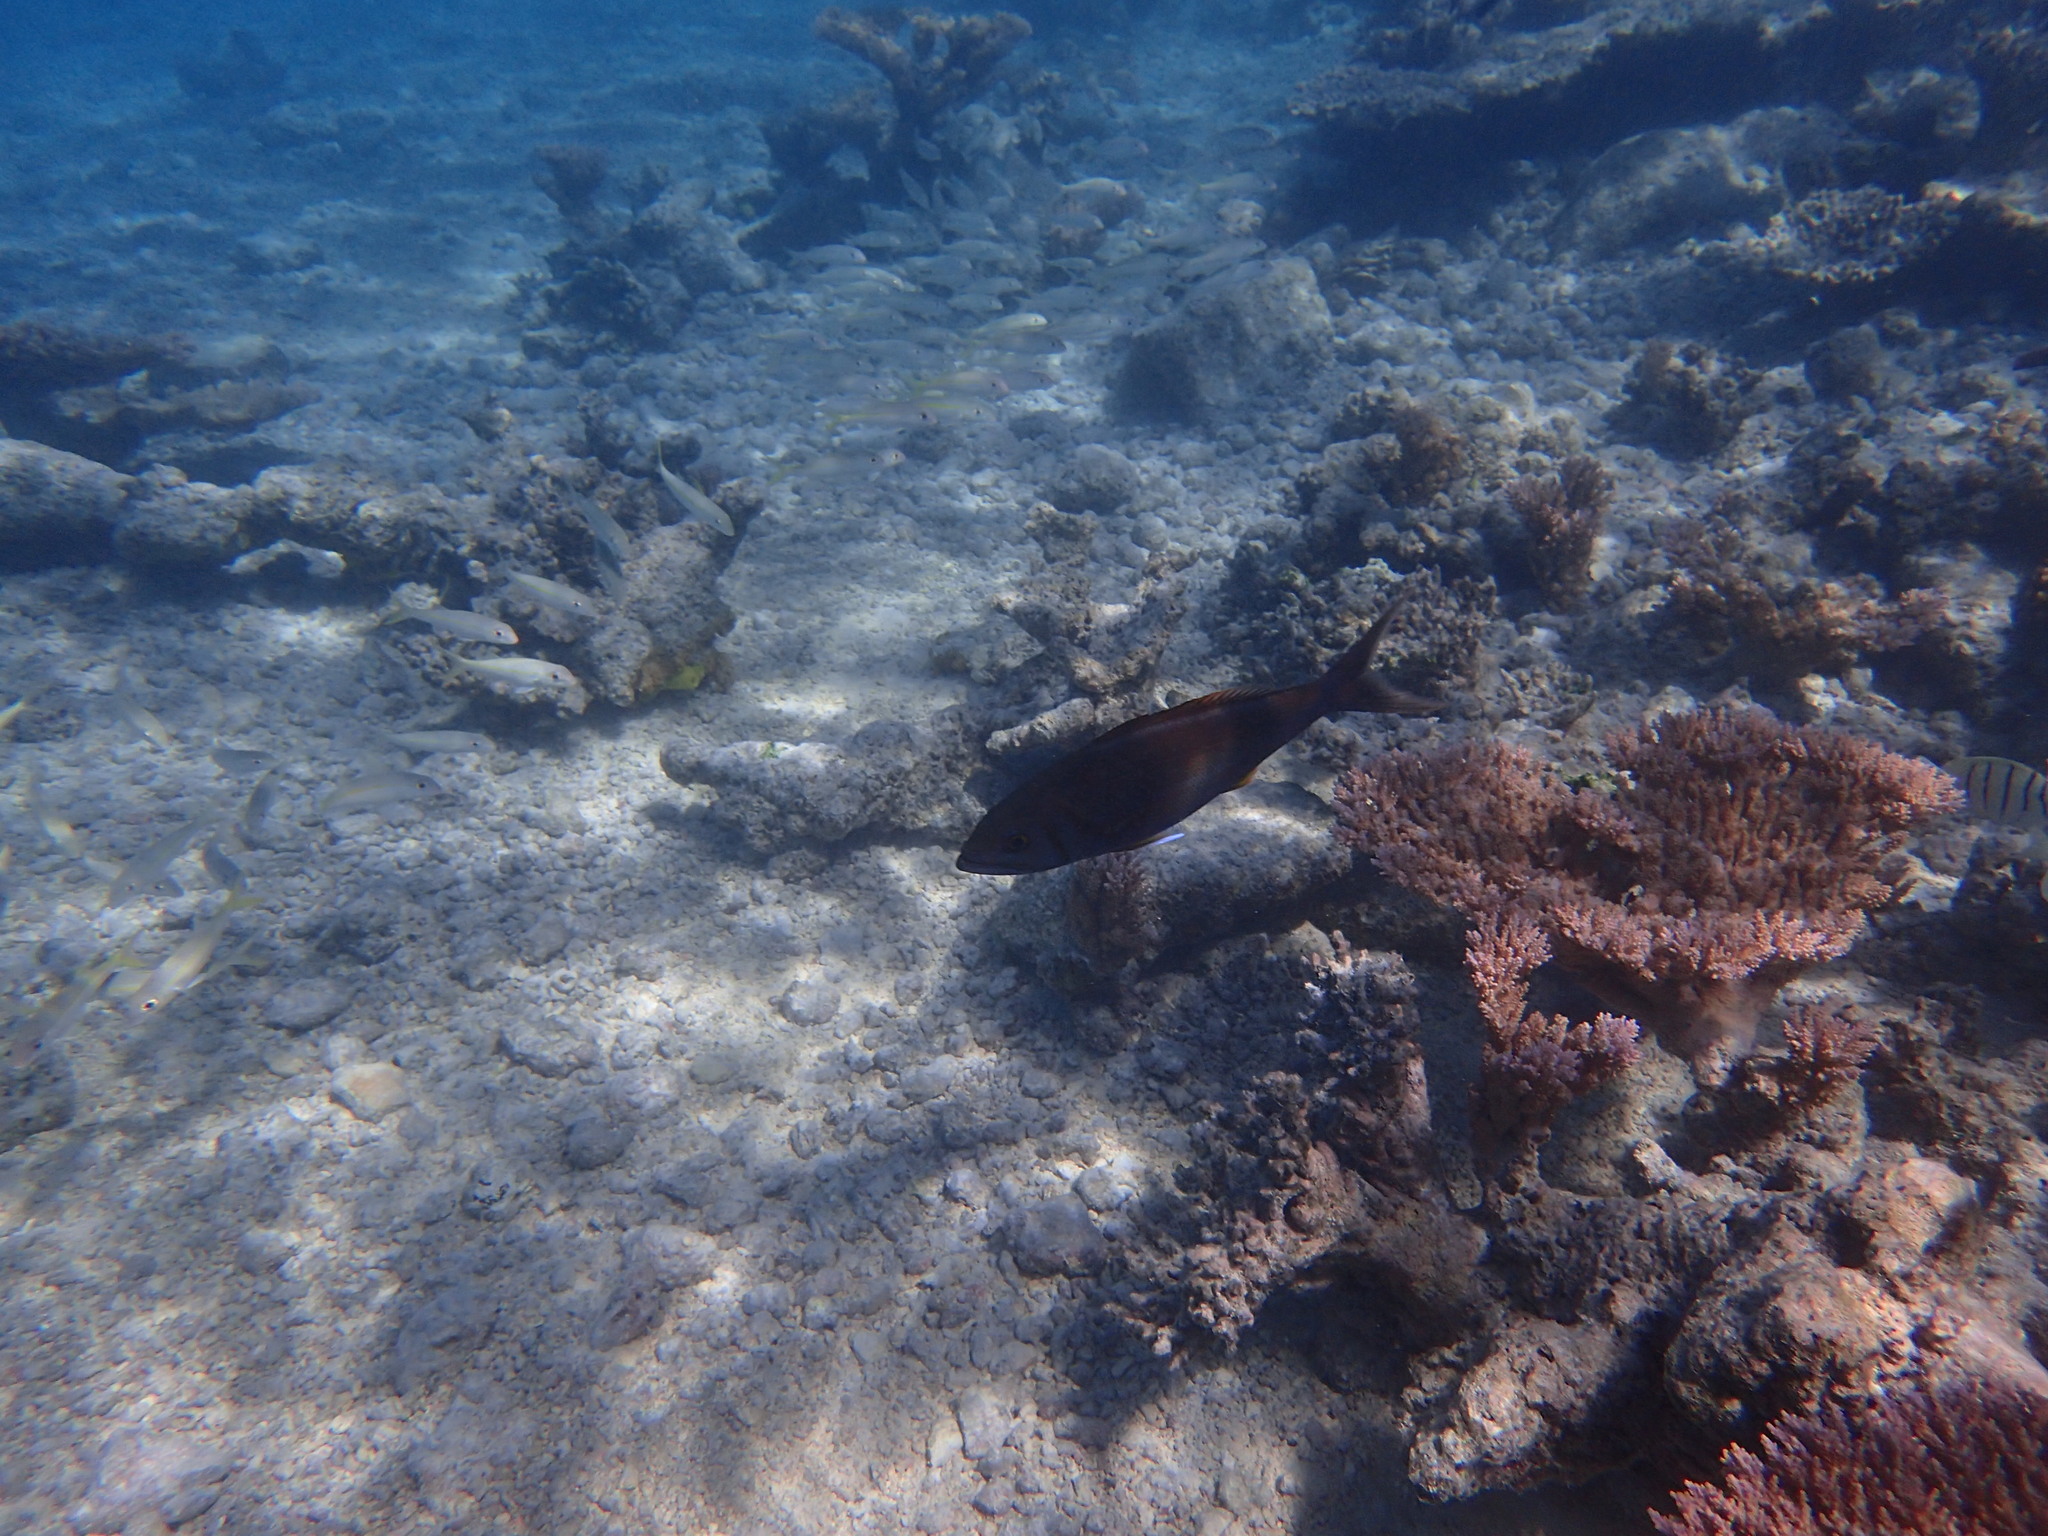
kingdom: Animalia
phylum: Chordata
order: Perciformes
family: Lutjanidae
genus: Aphareus
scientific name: Aphareus furca
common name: Smalltooth jobfish
